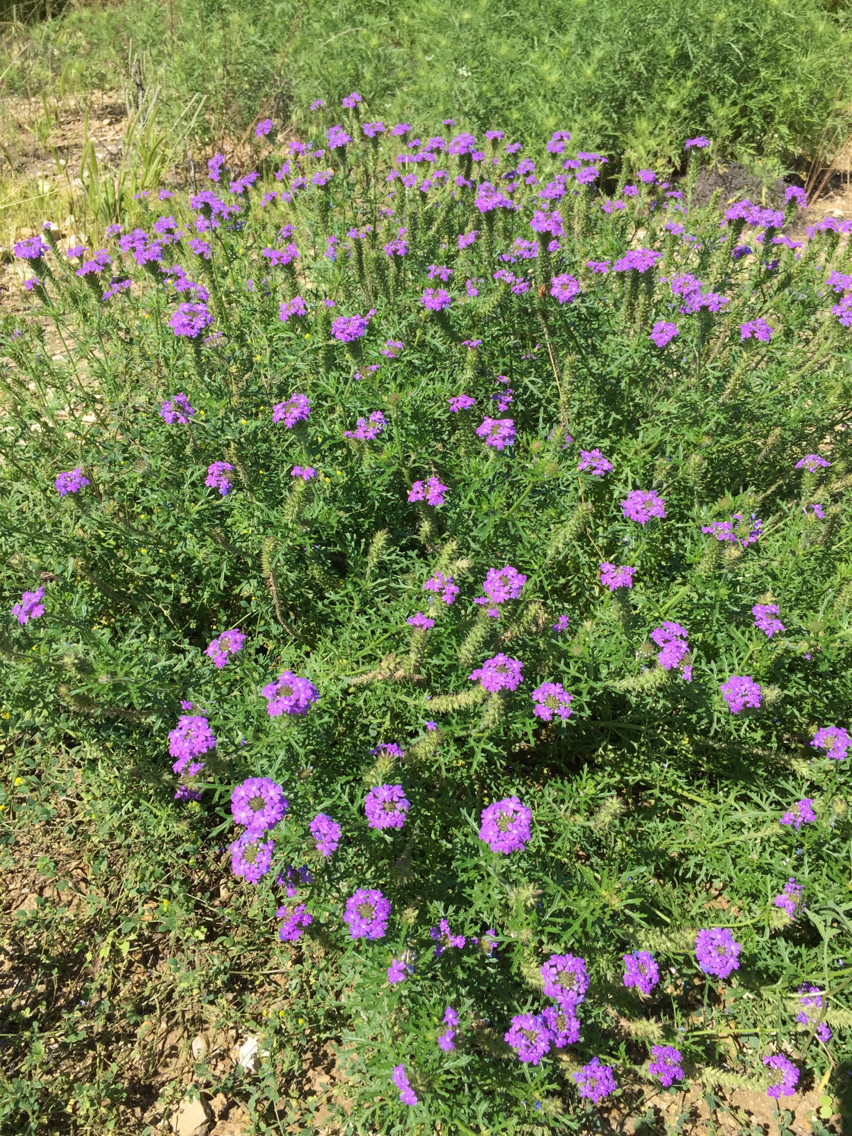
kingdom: Plantae
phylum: Tracheophyta
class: Magnoliopsida
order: Lamiales
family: Verbenaceae
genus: Verbena
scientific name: Verbena bipinnatifida
